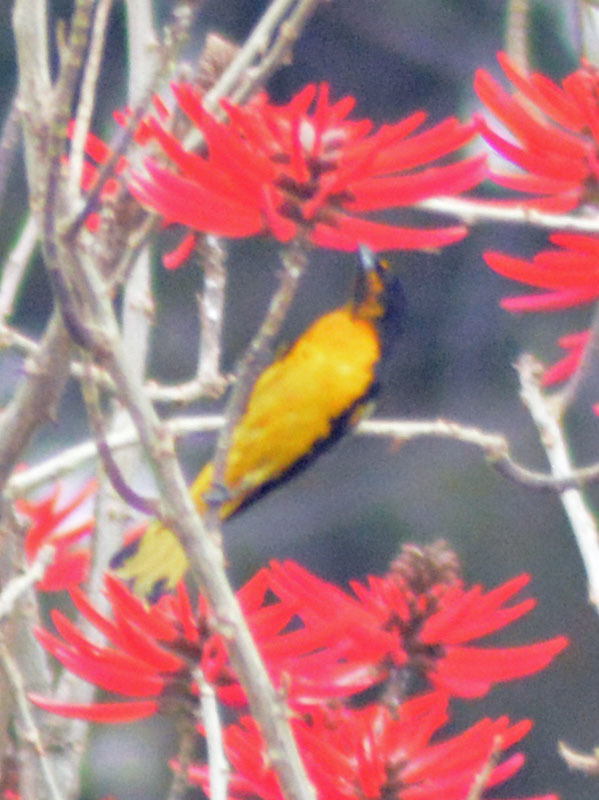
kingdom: Animalia
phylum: Chordata
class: Aves
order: Passeriformes
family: Icteridae
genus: Icterus
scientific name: Icterus abeillei
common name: Black-backed oriole
